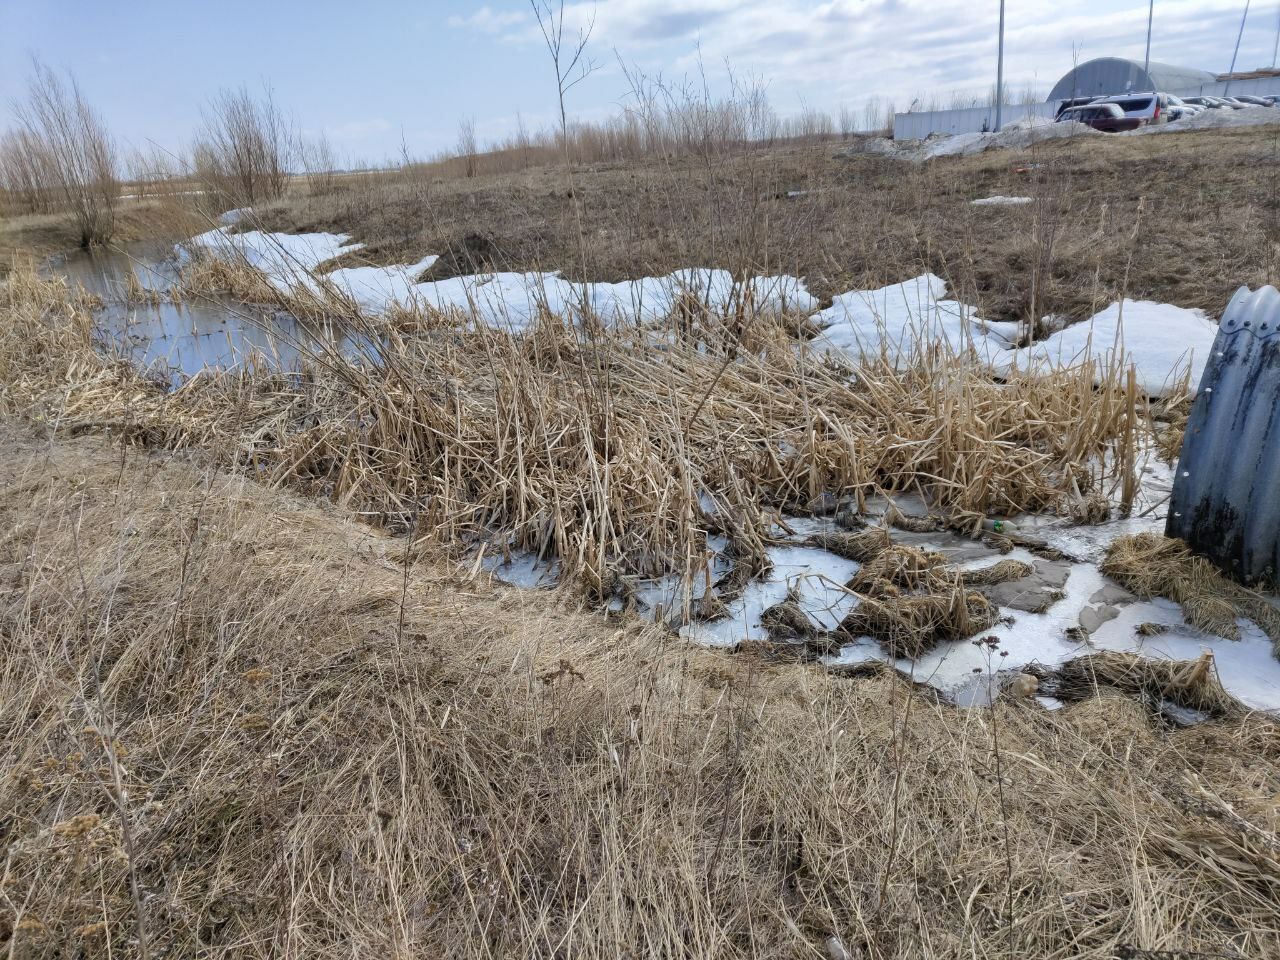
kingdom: Plantae
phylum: Tracheophyta
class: Liliopsida
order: Poales
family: Poaceae
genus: Phragmites
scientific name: Phragmites australis
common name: Common reed
